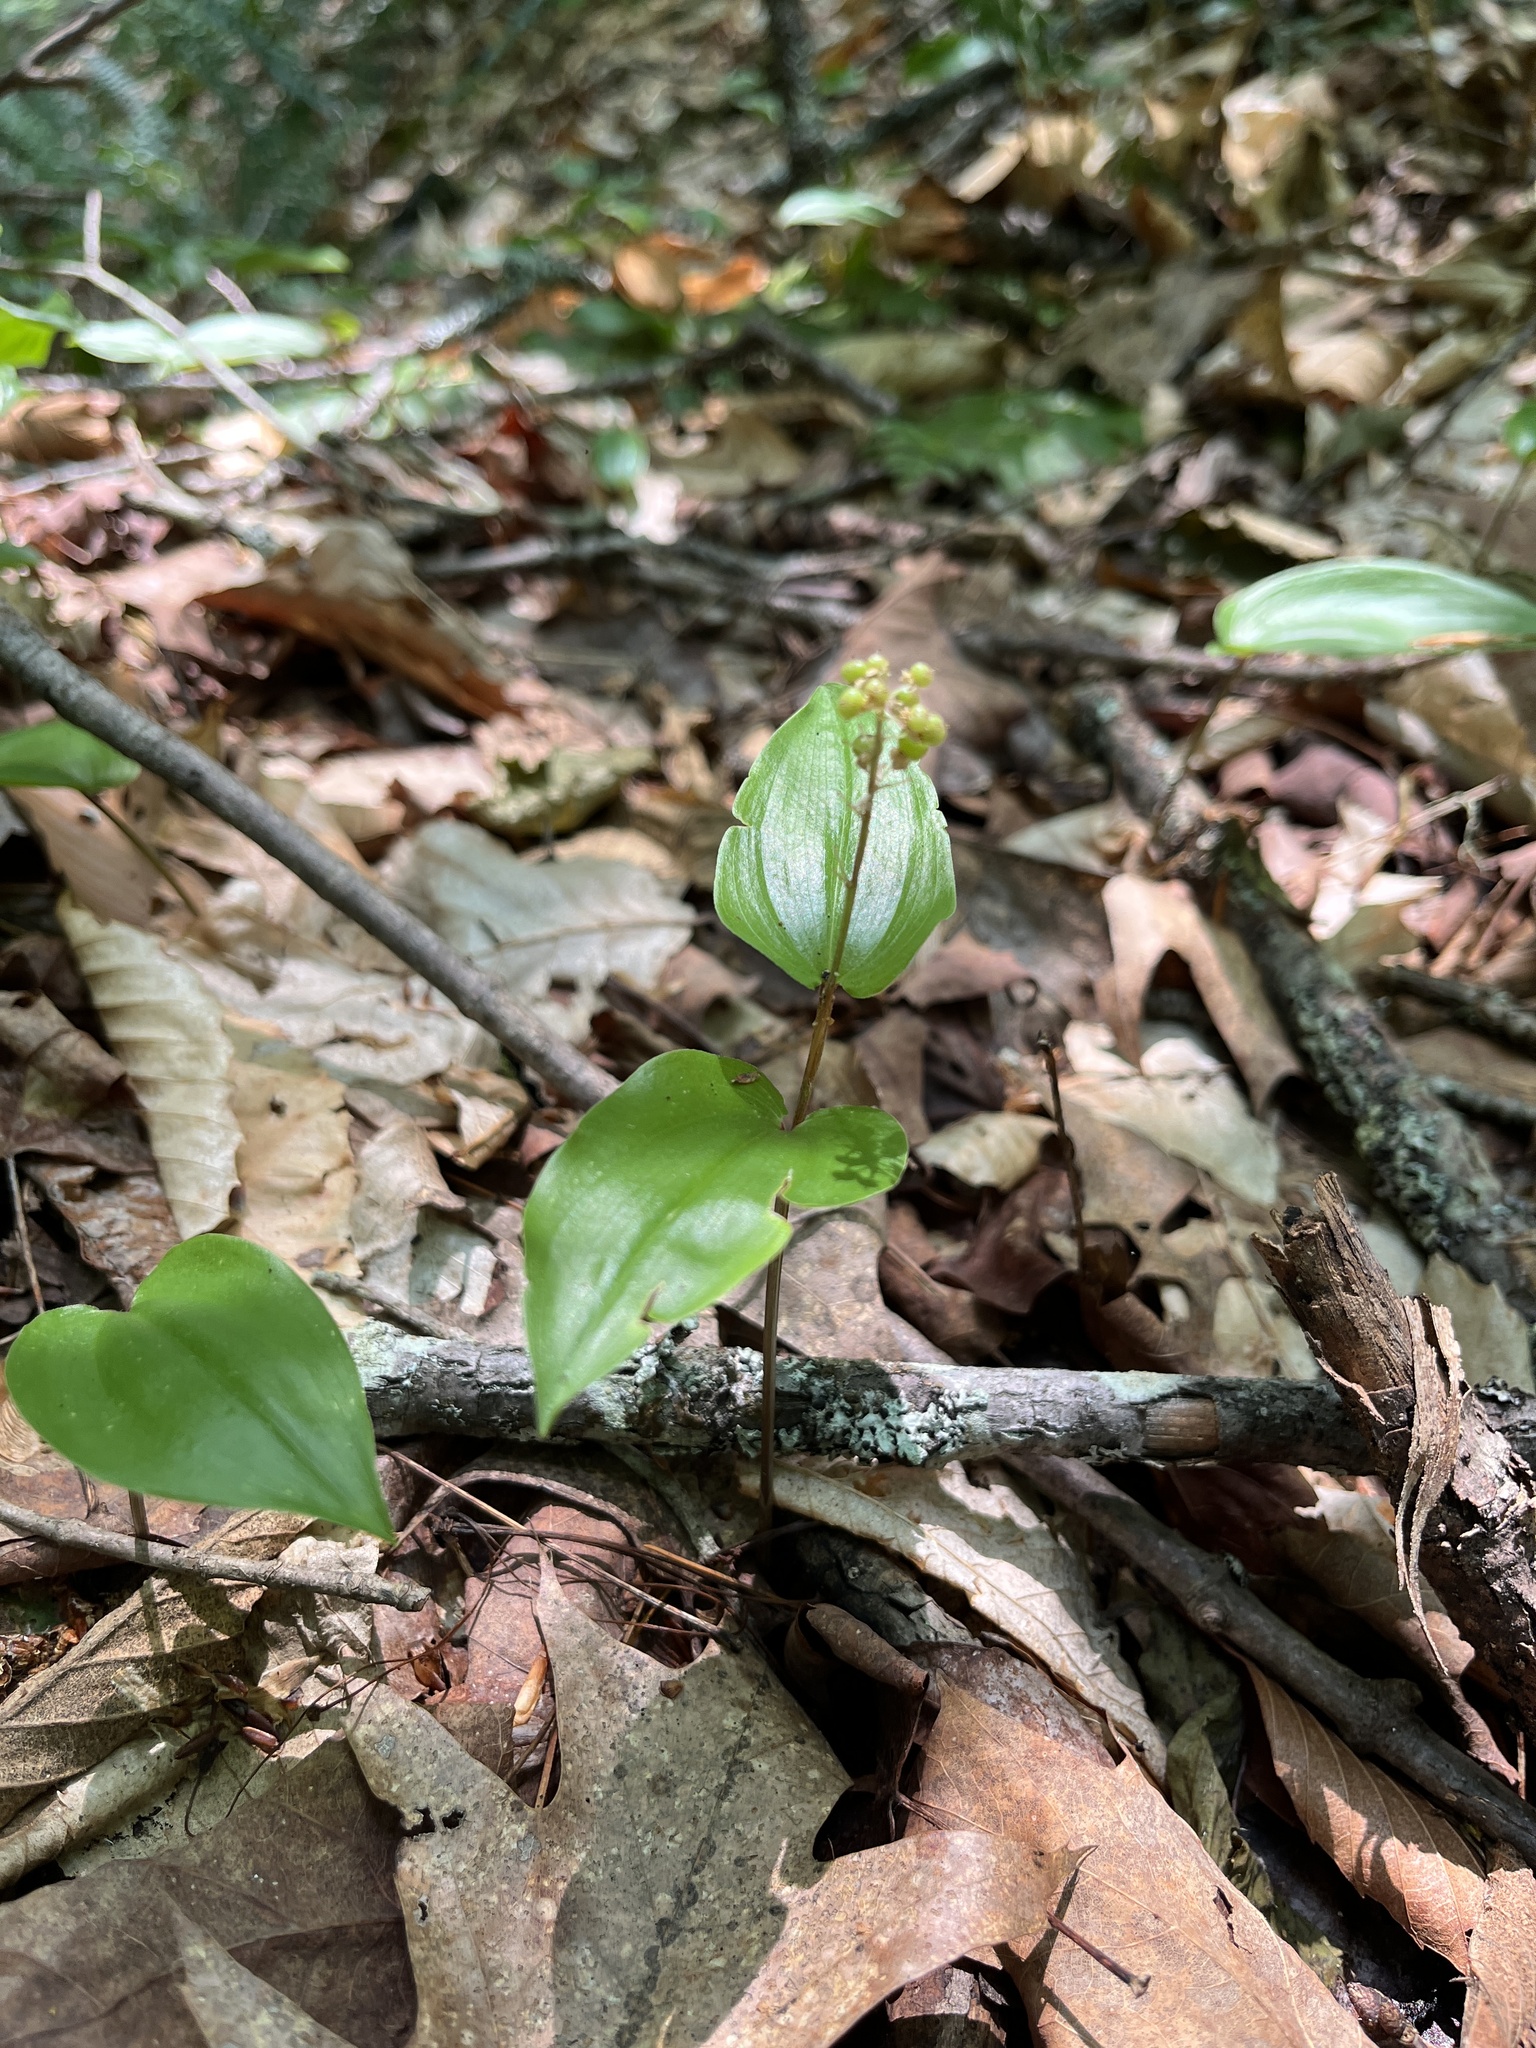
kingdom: Plantae
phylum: Tracheophyta
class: Liliopsida
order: Asparagales
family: Asparagaceae
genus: Maianthemum
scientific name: Maianthemum canadense
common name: False lily-of-the-valley
